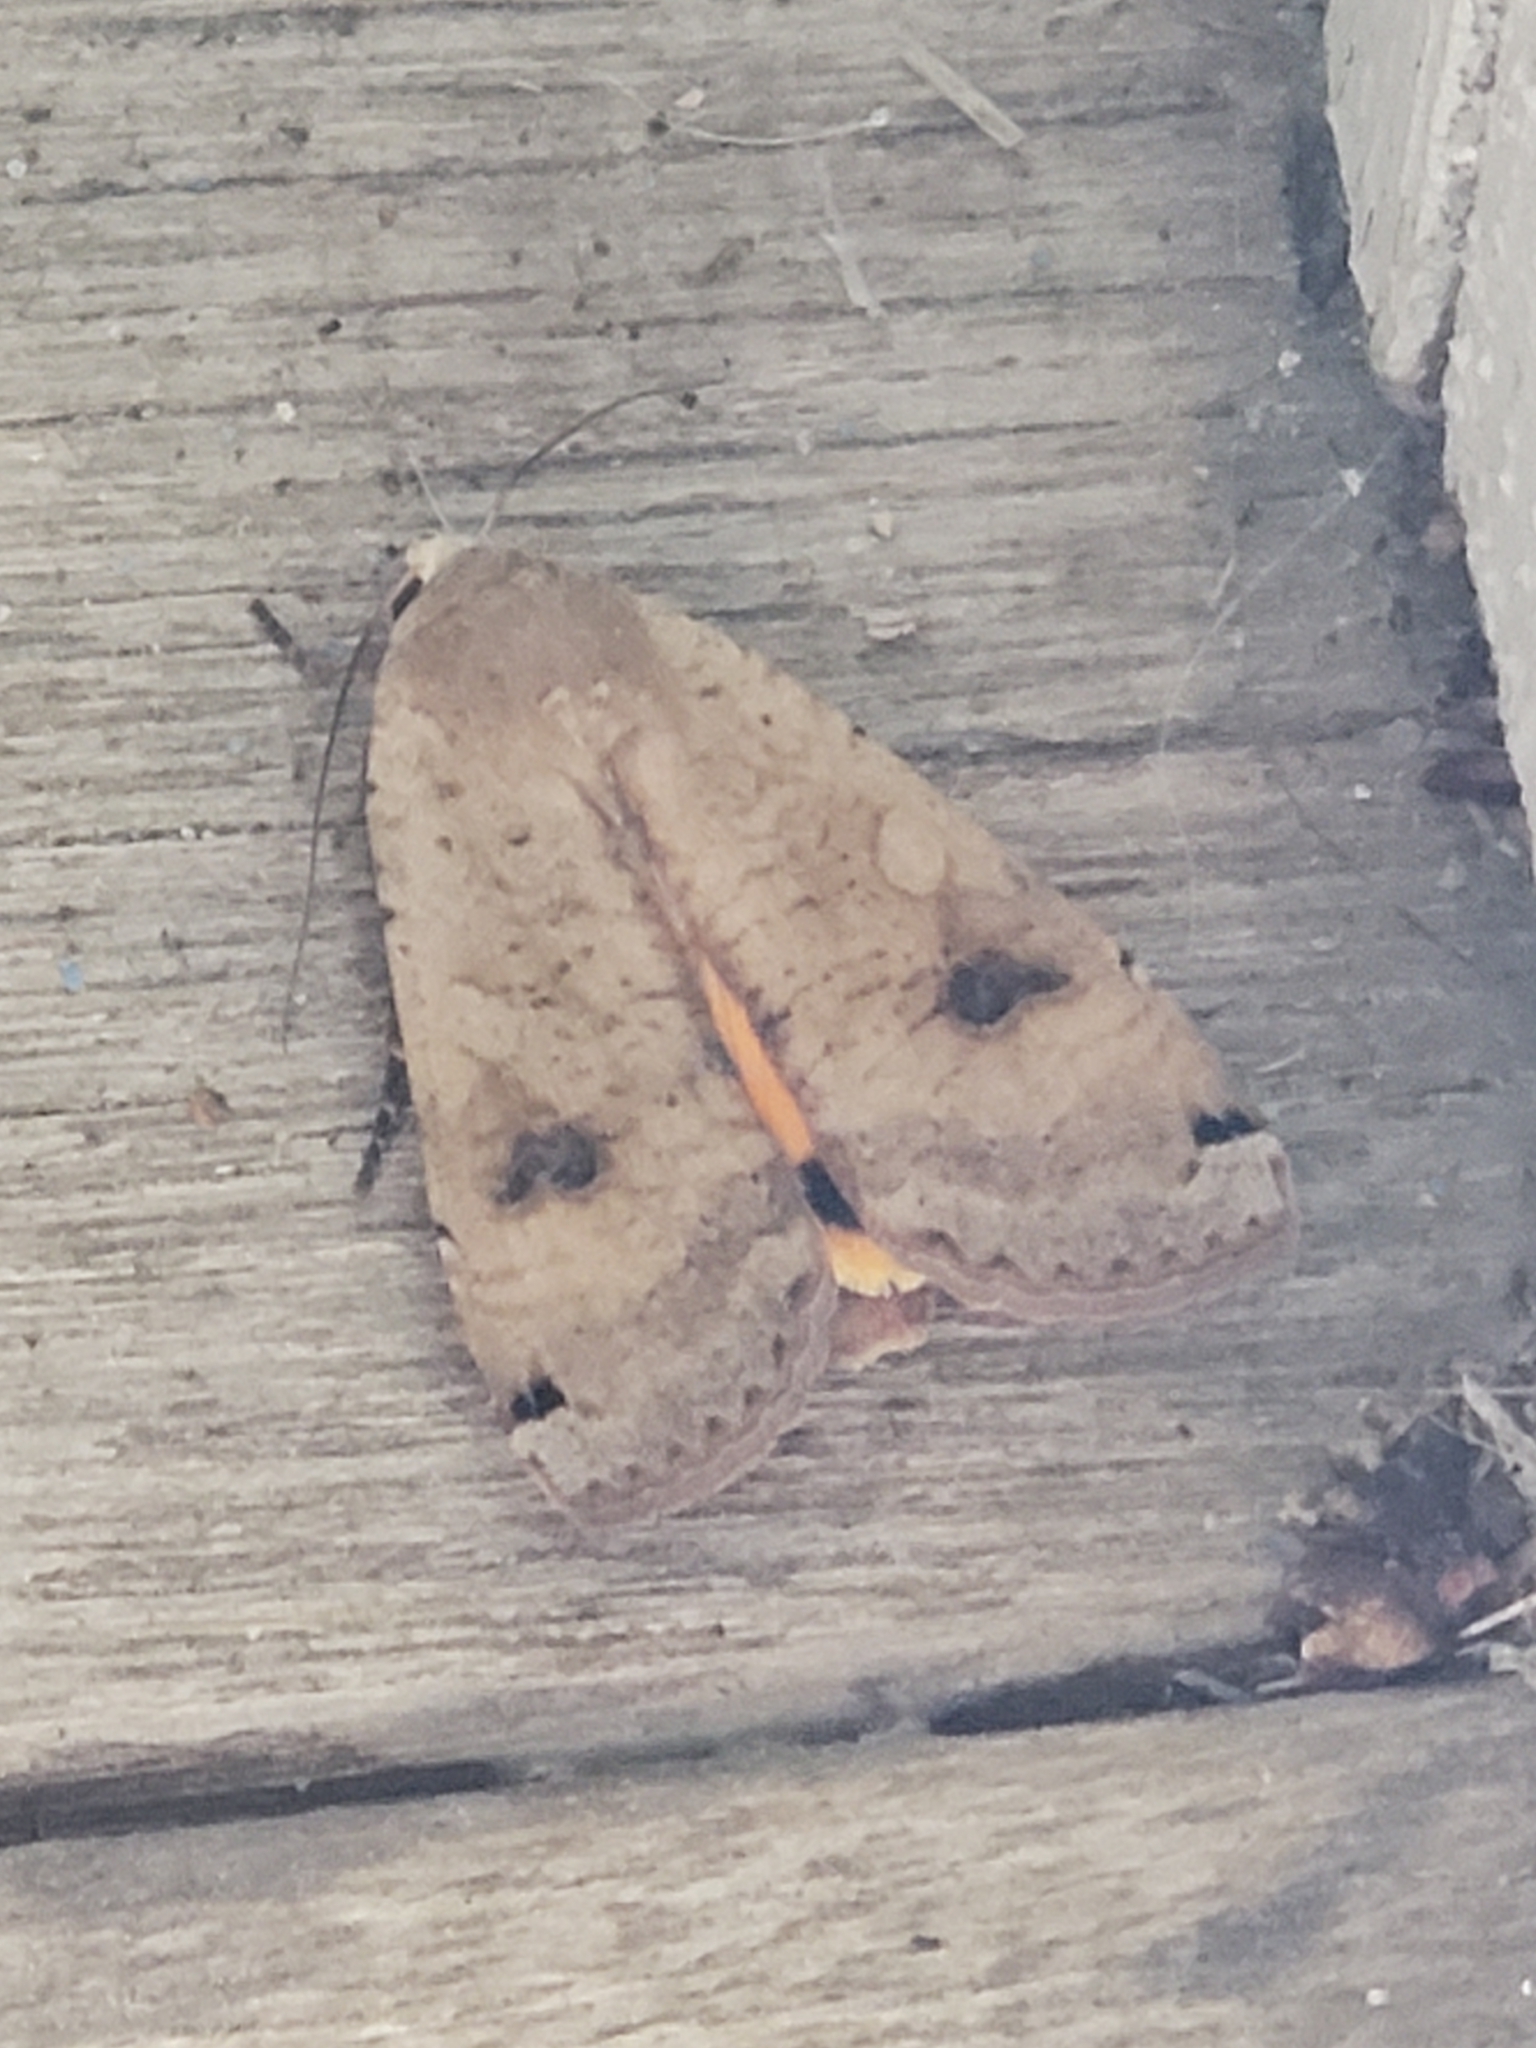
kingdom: Animalia
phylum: Arthropoda
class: Insecta
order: Lepidoptera
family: Noctuidae
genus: Noctua
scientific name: Noctua pronuba
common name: Large yellow underwing
